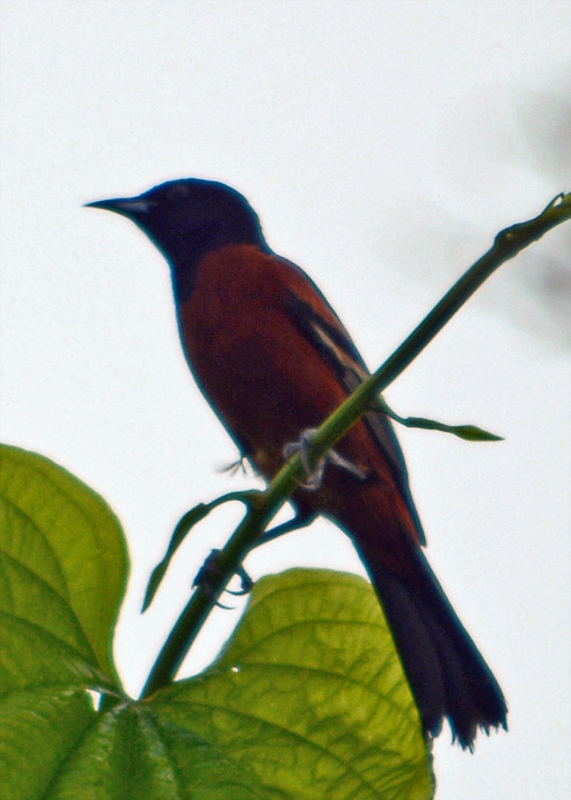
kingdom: Animalia
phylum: Chordata
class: Aves
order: Passeriformes
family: Icteridae
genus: Icterus
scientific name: Icterus spurius
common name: Orchard oriole
